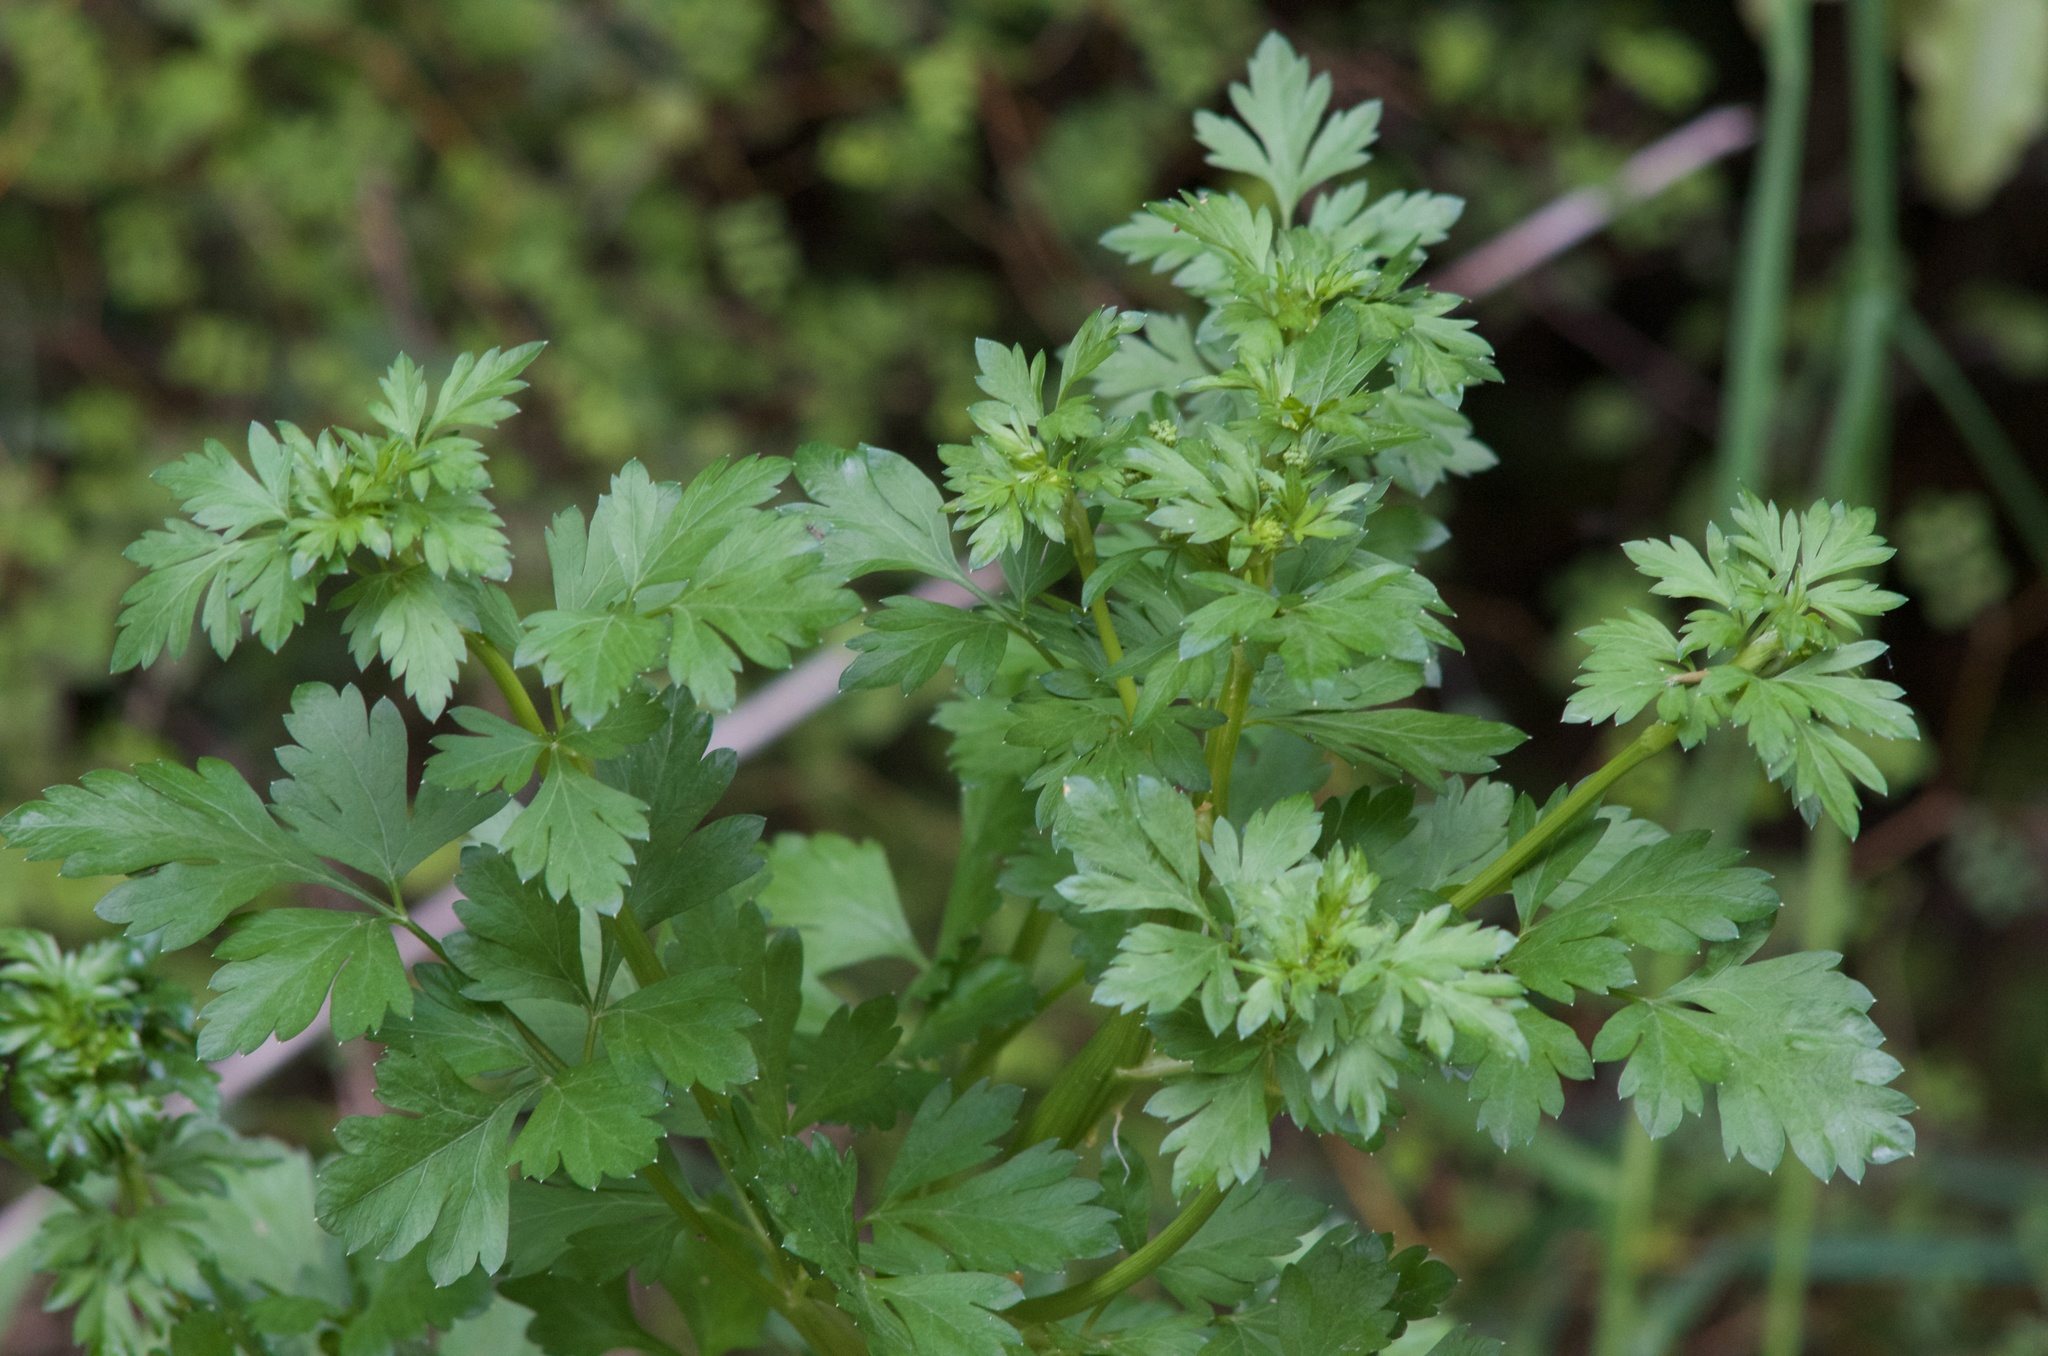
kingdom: Plantae
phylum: Tracheophyta
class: Magnoliopsida
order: Apiales
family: Apiaceae
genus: Petroselinum
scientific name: Petroselinum crispum
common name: Parsley
